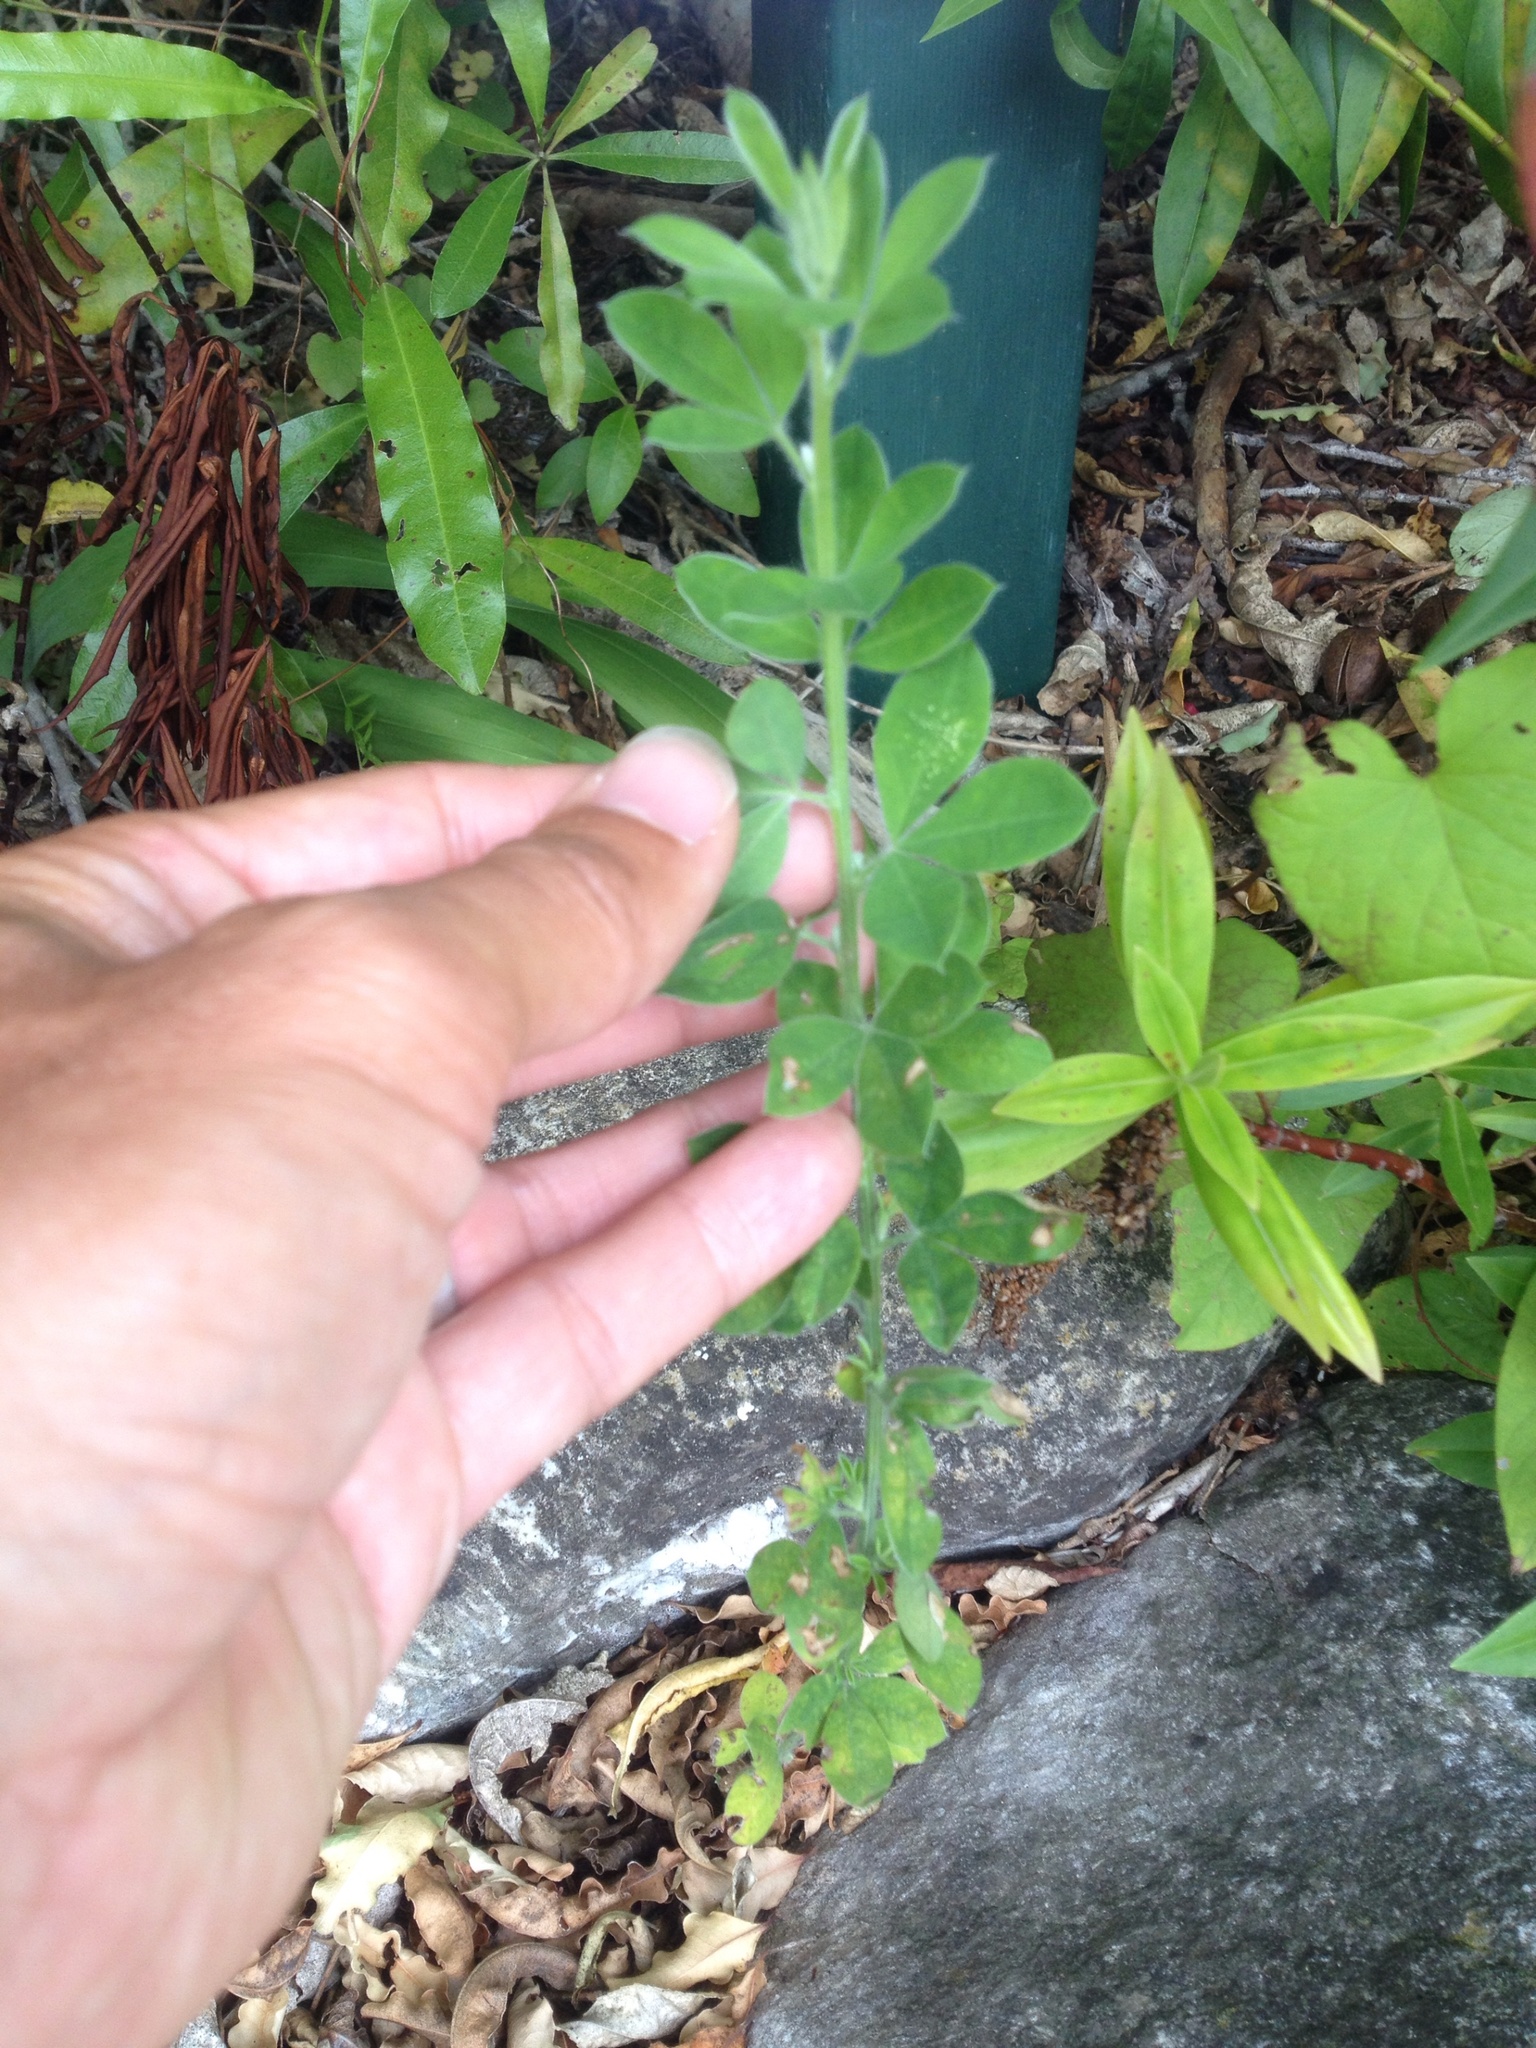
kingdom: Plantae
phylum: Tracheophyta
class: Magnoliopsida
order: Fabales
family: Fabaceae
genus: Chamaecytisus
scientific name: Chamaecytisus prolifer
